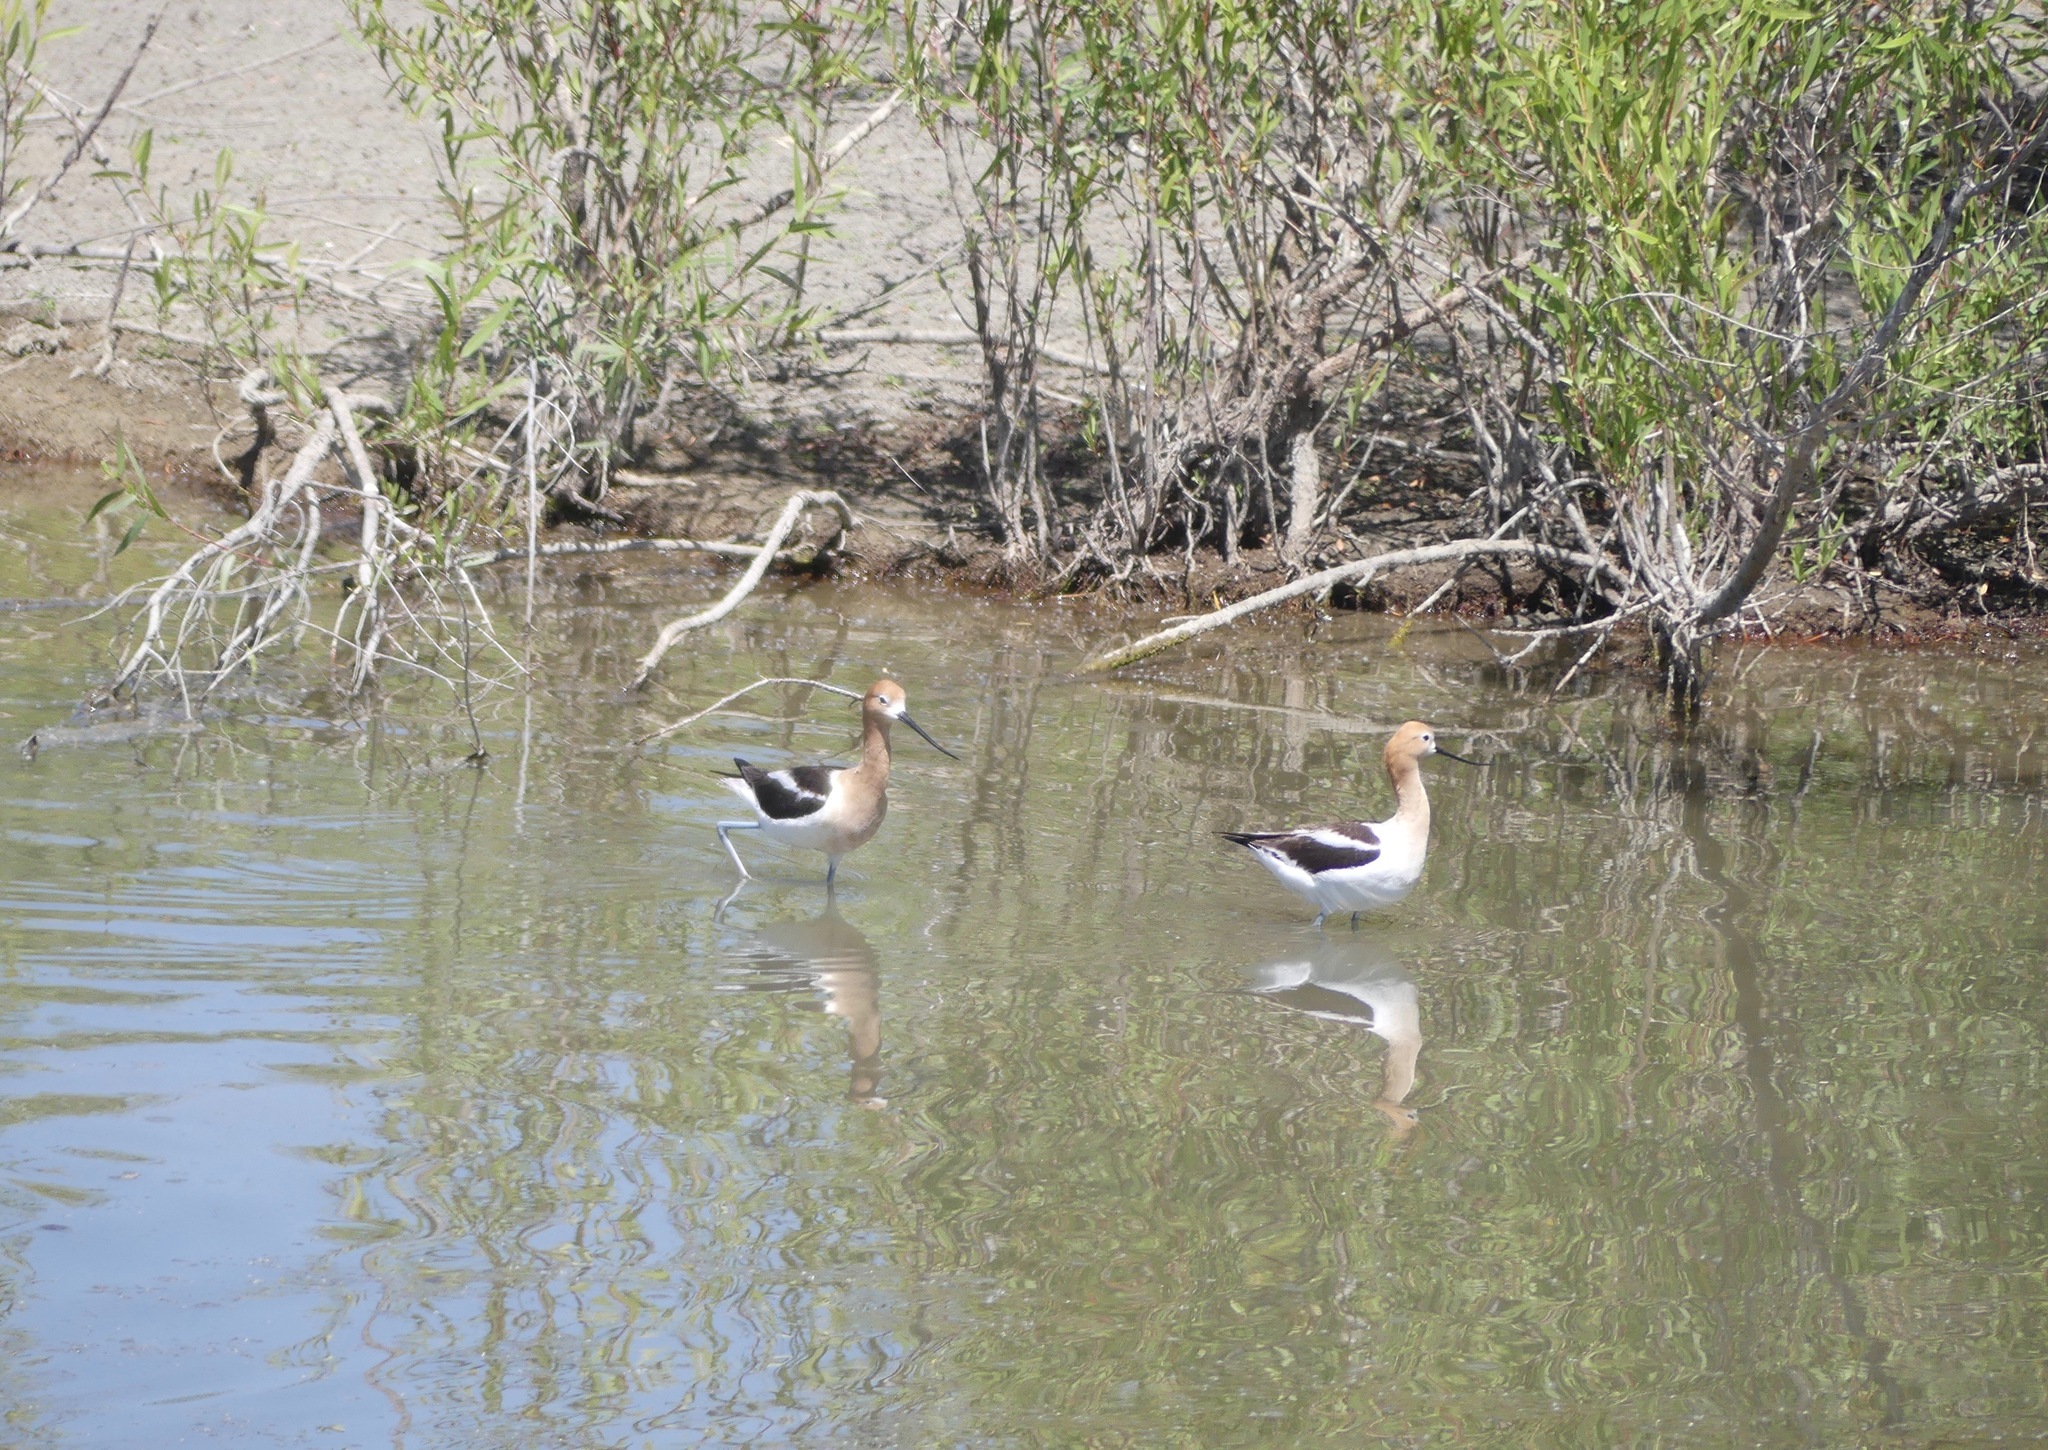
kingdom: Animalia
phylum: Chordata
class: Aves
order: Charadriiformes
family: Recurvirostridae
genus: Recurvirostra
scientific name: Recurvirostra americana
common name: American avocet
